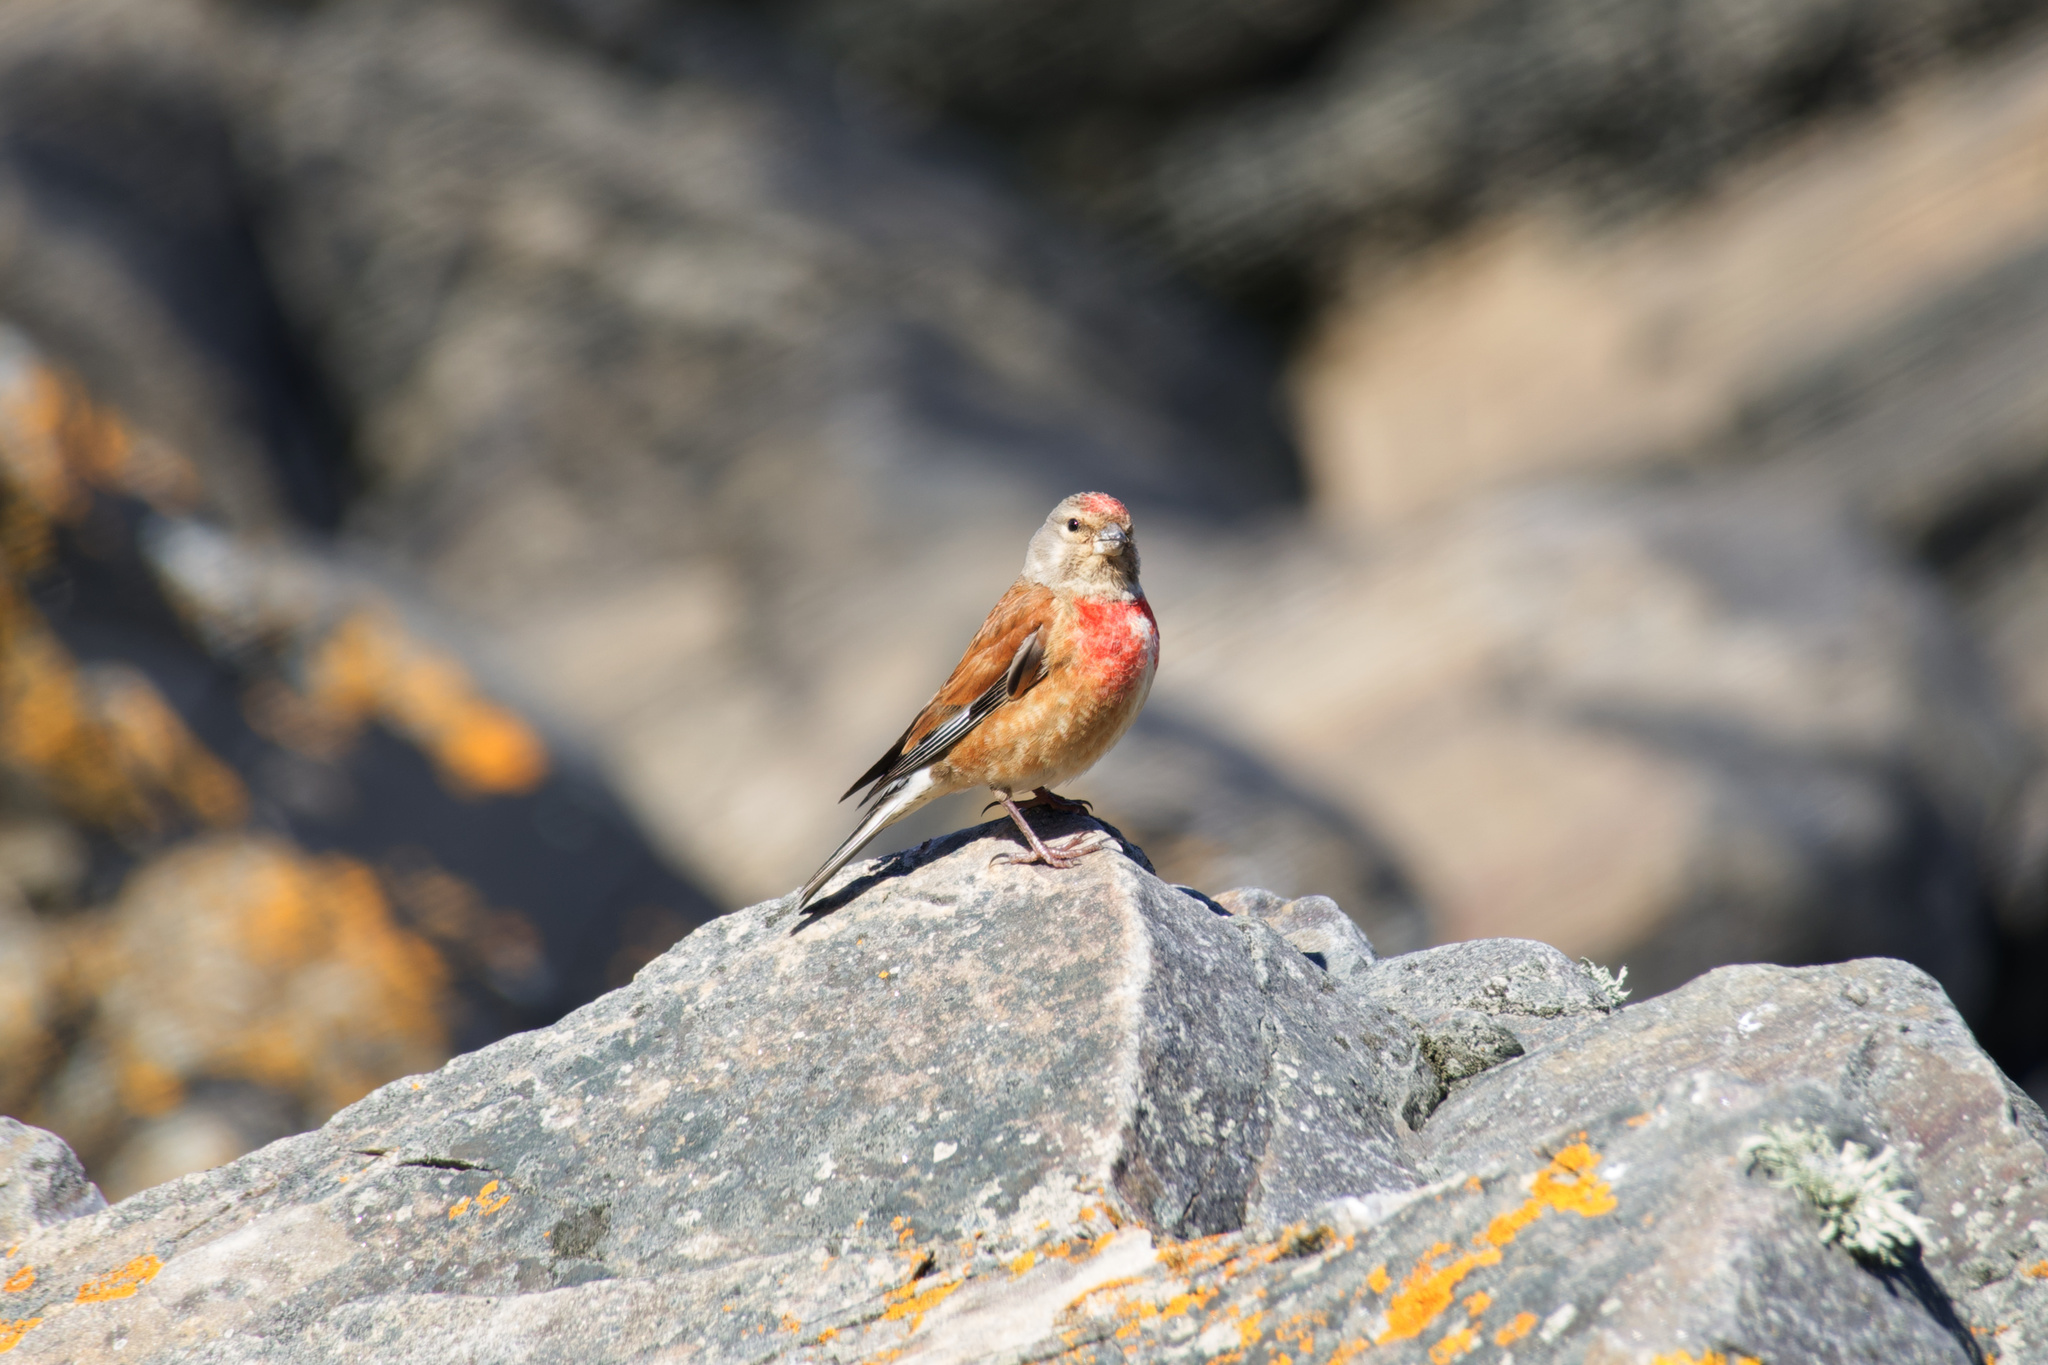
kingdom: Animalia
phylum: Chordata
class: Aves
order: Passeriformes
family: Fringillidae
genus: Linaria
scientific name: Linaria cannabina
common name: Common linnet
